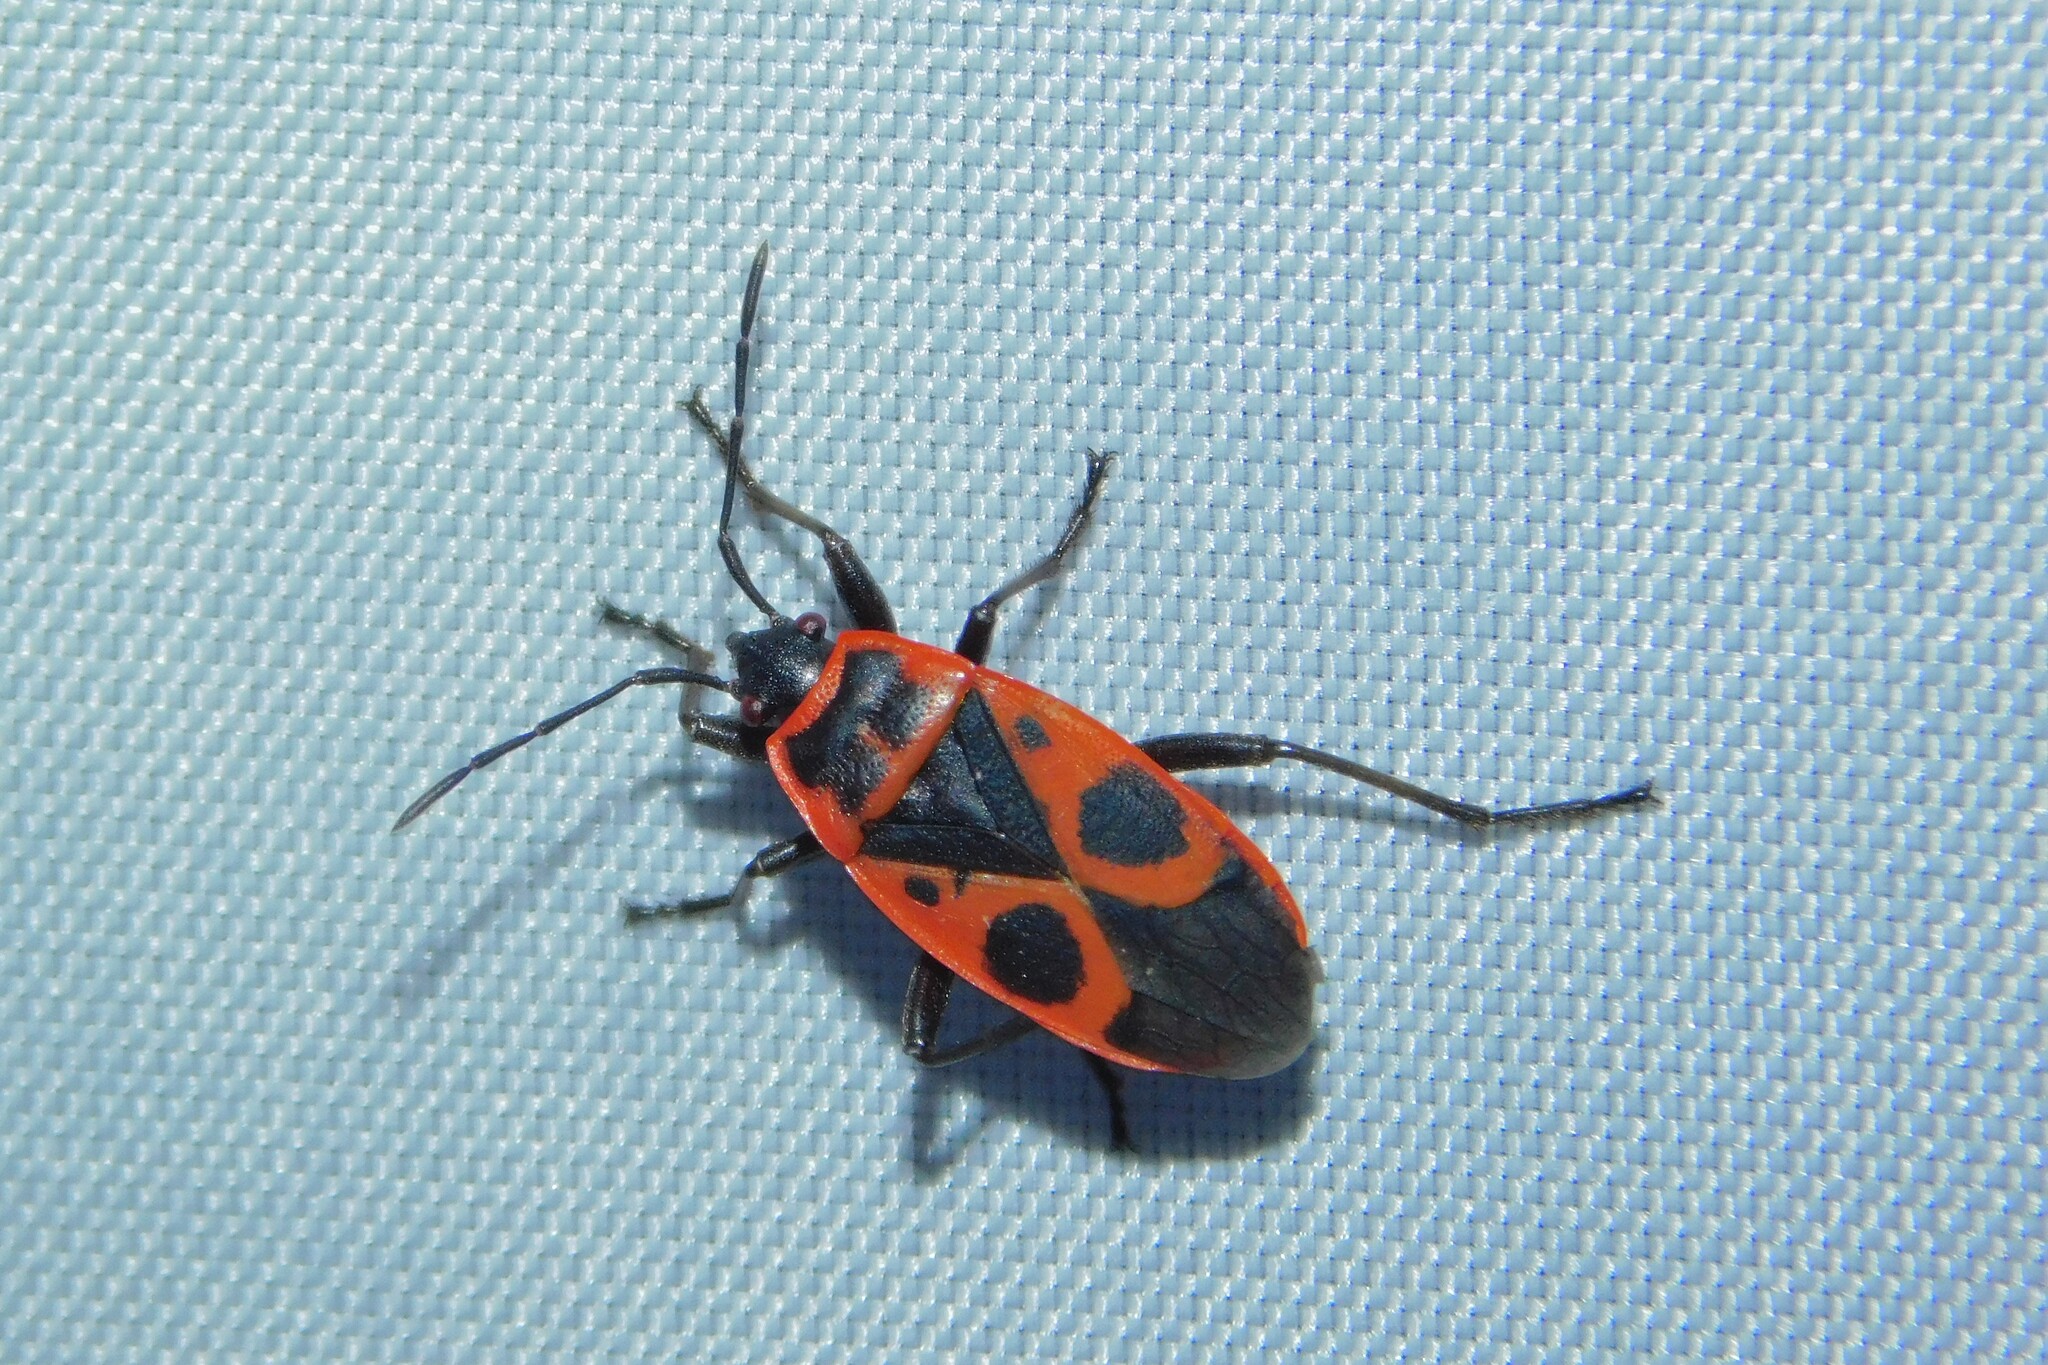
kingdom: Animalia
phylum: Arthropoda
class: Insecta
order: Hemiptera
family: Pyrrhocoridae
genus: Pyrrhocoris
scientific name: Pyrrhocoris apterus
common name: Firebug
